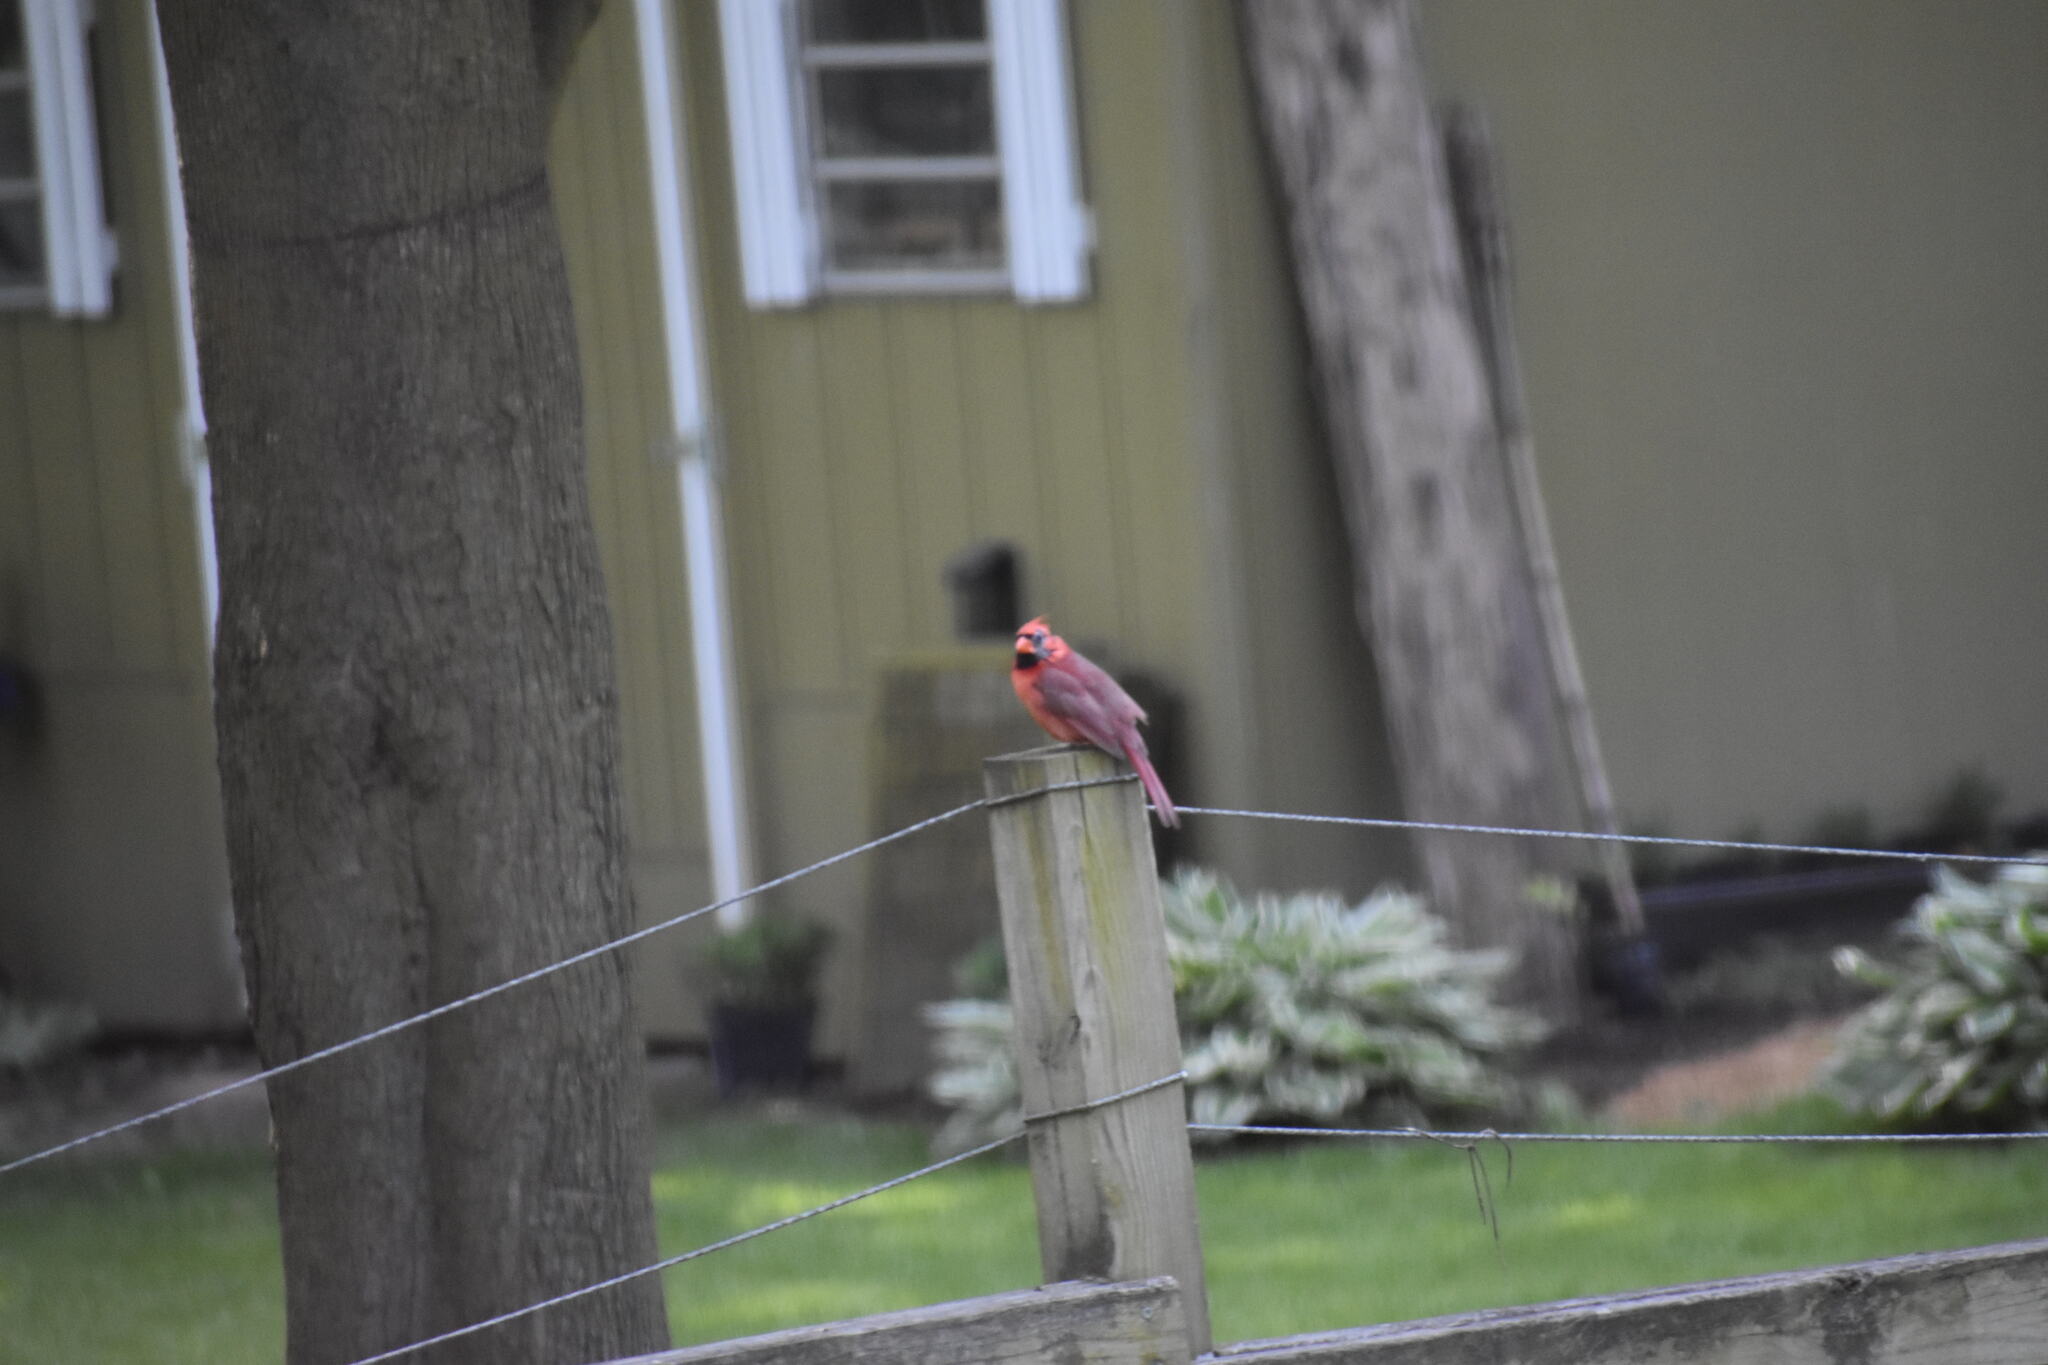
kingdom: Animalia
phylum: Chordata
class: Aves
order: Passeriformes
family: Cardinalidae
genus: Cardinalis
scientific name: Cardinalis cardinalis
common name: Northern cardinal
